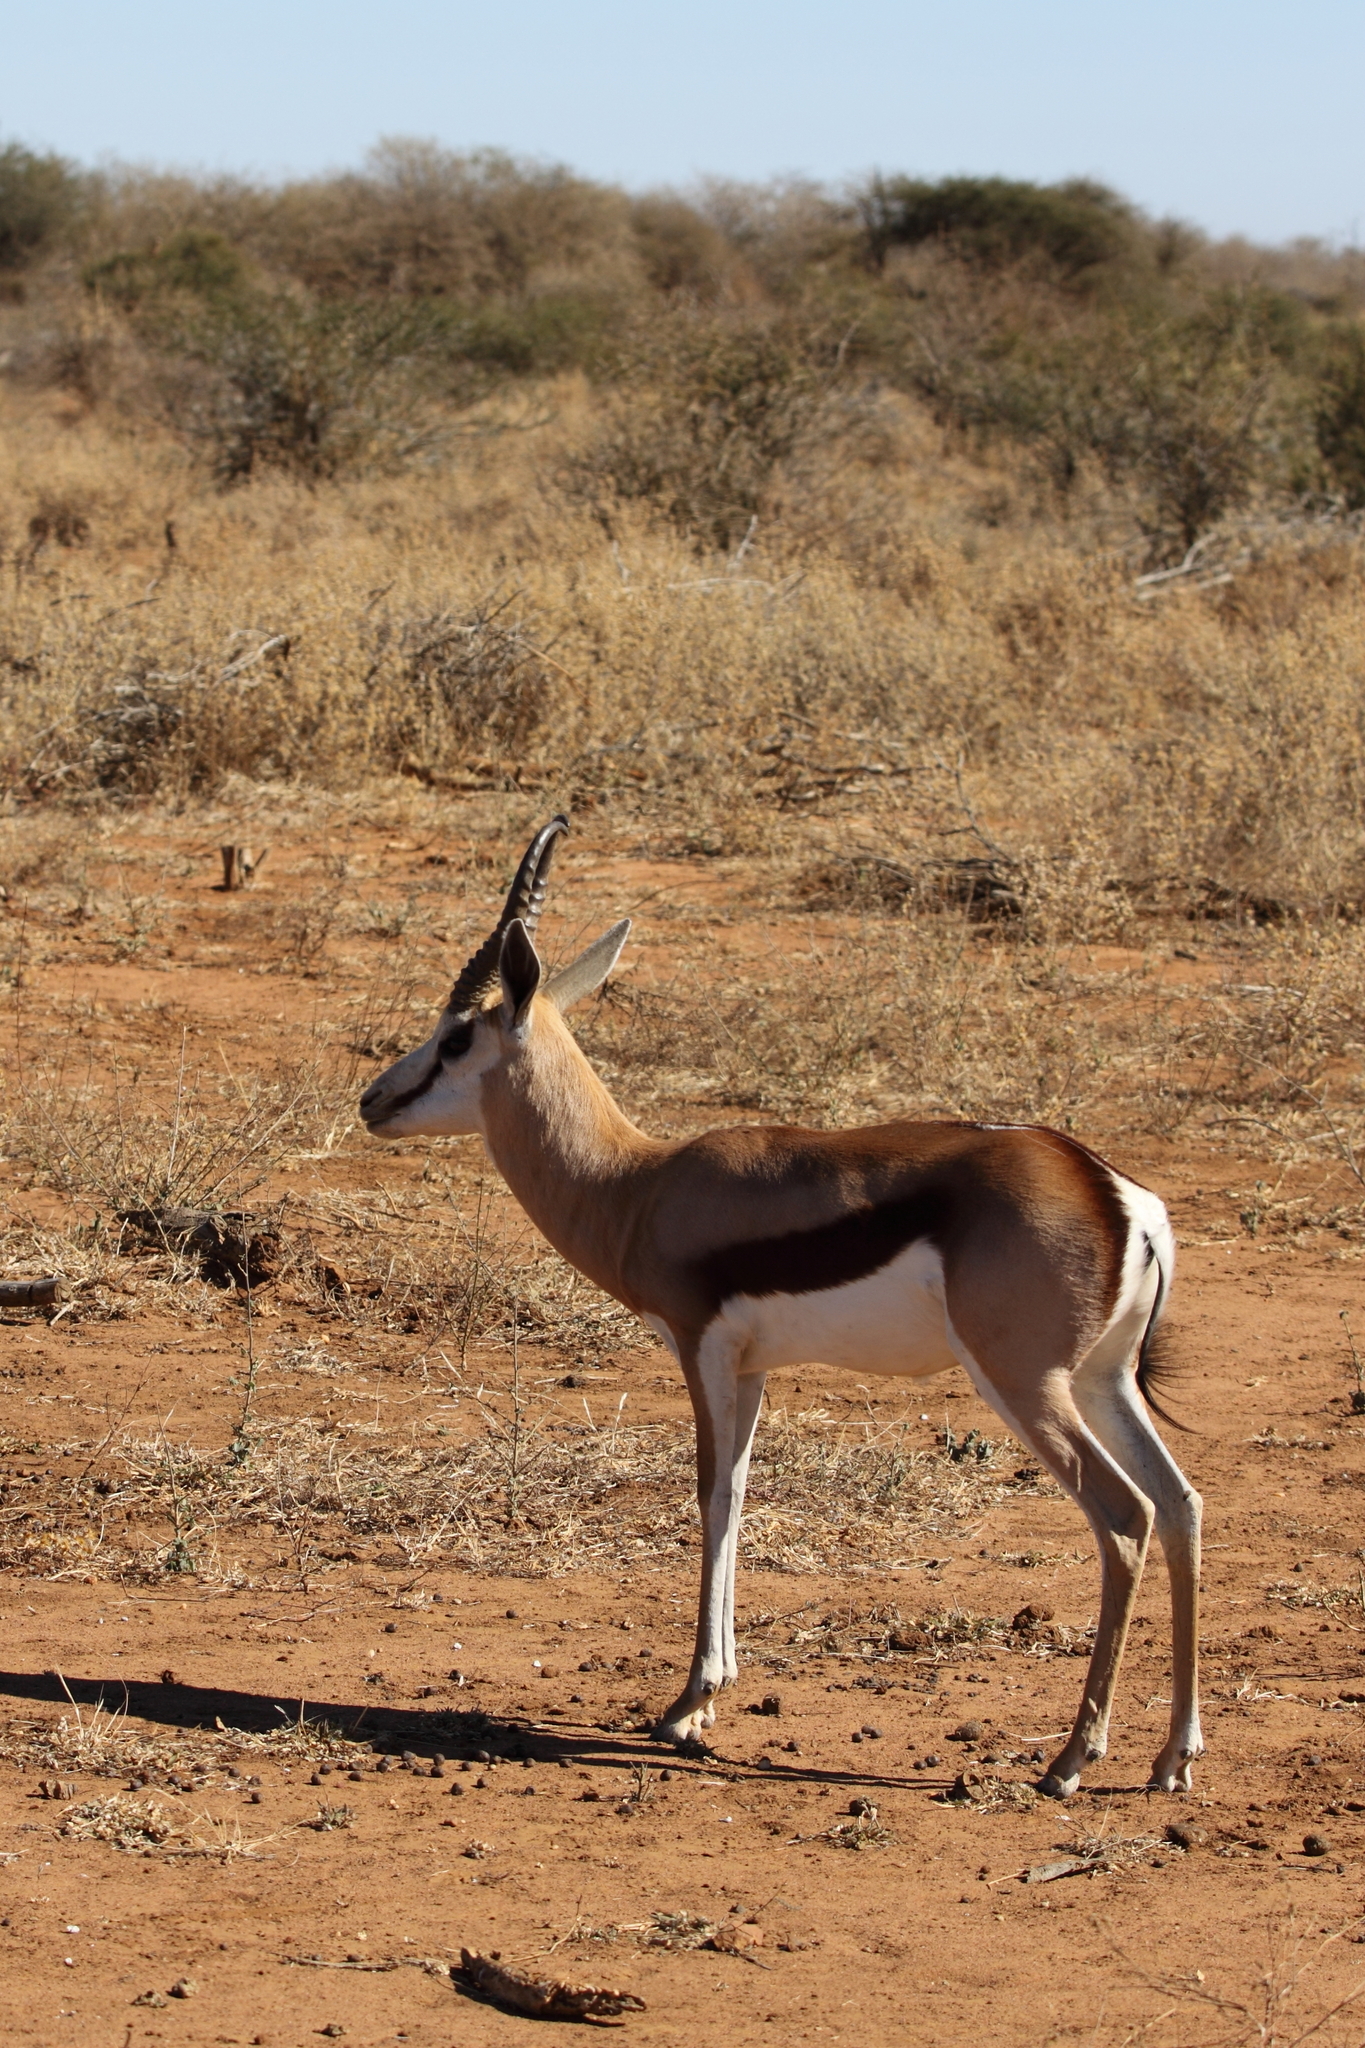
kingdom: Animalia
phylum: Chordata
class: Mammalia
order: Artiodactyla
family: Bovidae
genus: Antidorcas
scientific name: Antidorcas marsupialis
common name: Springbok
